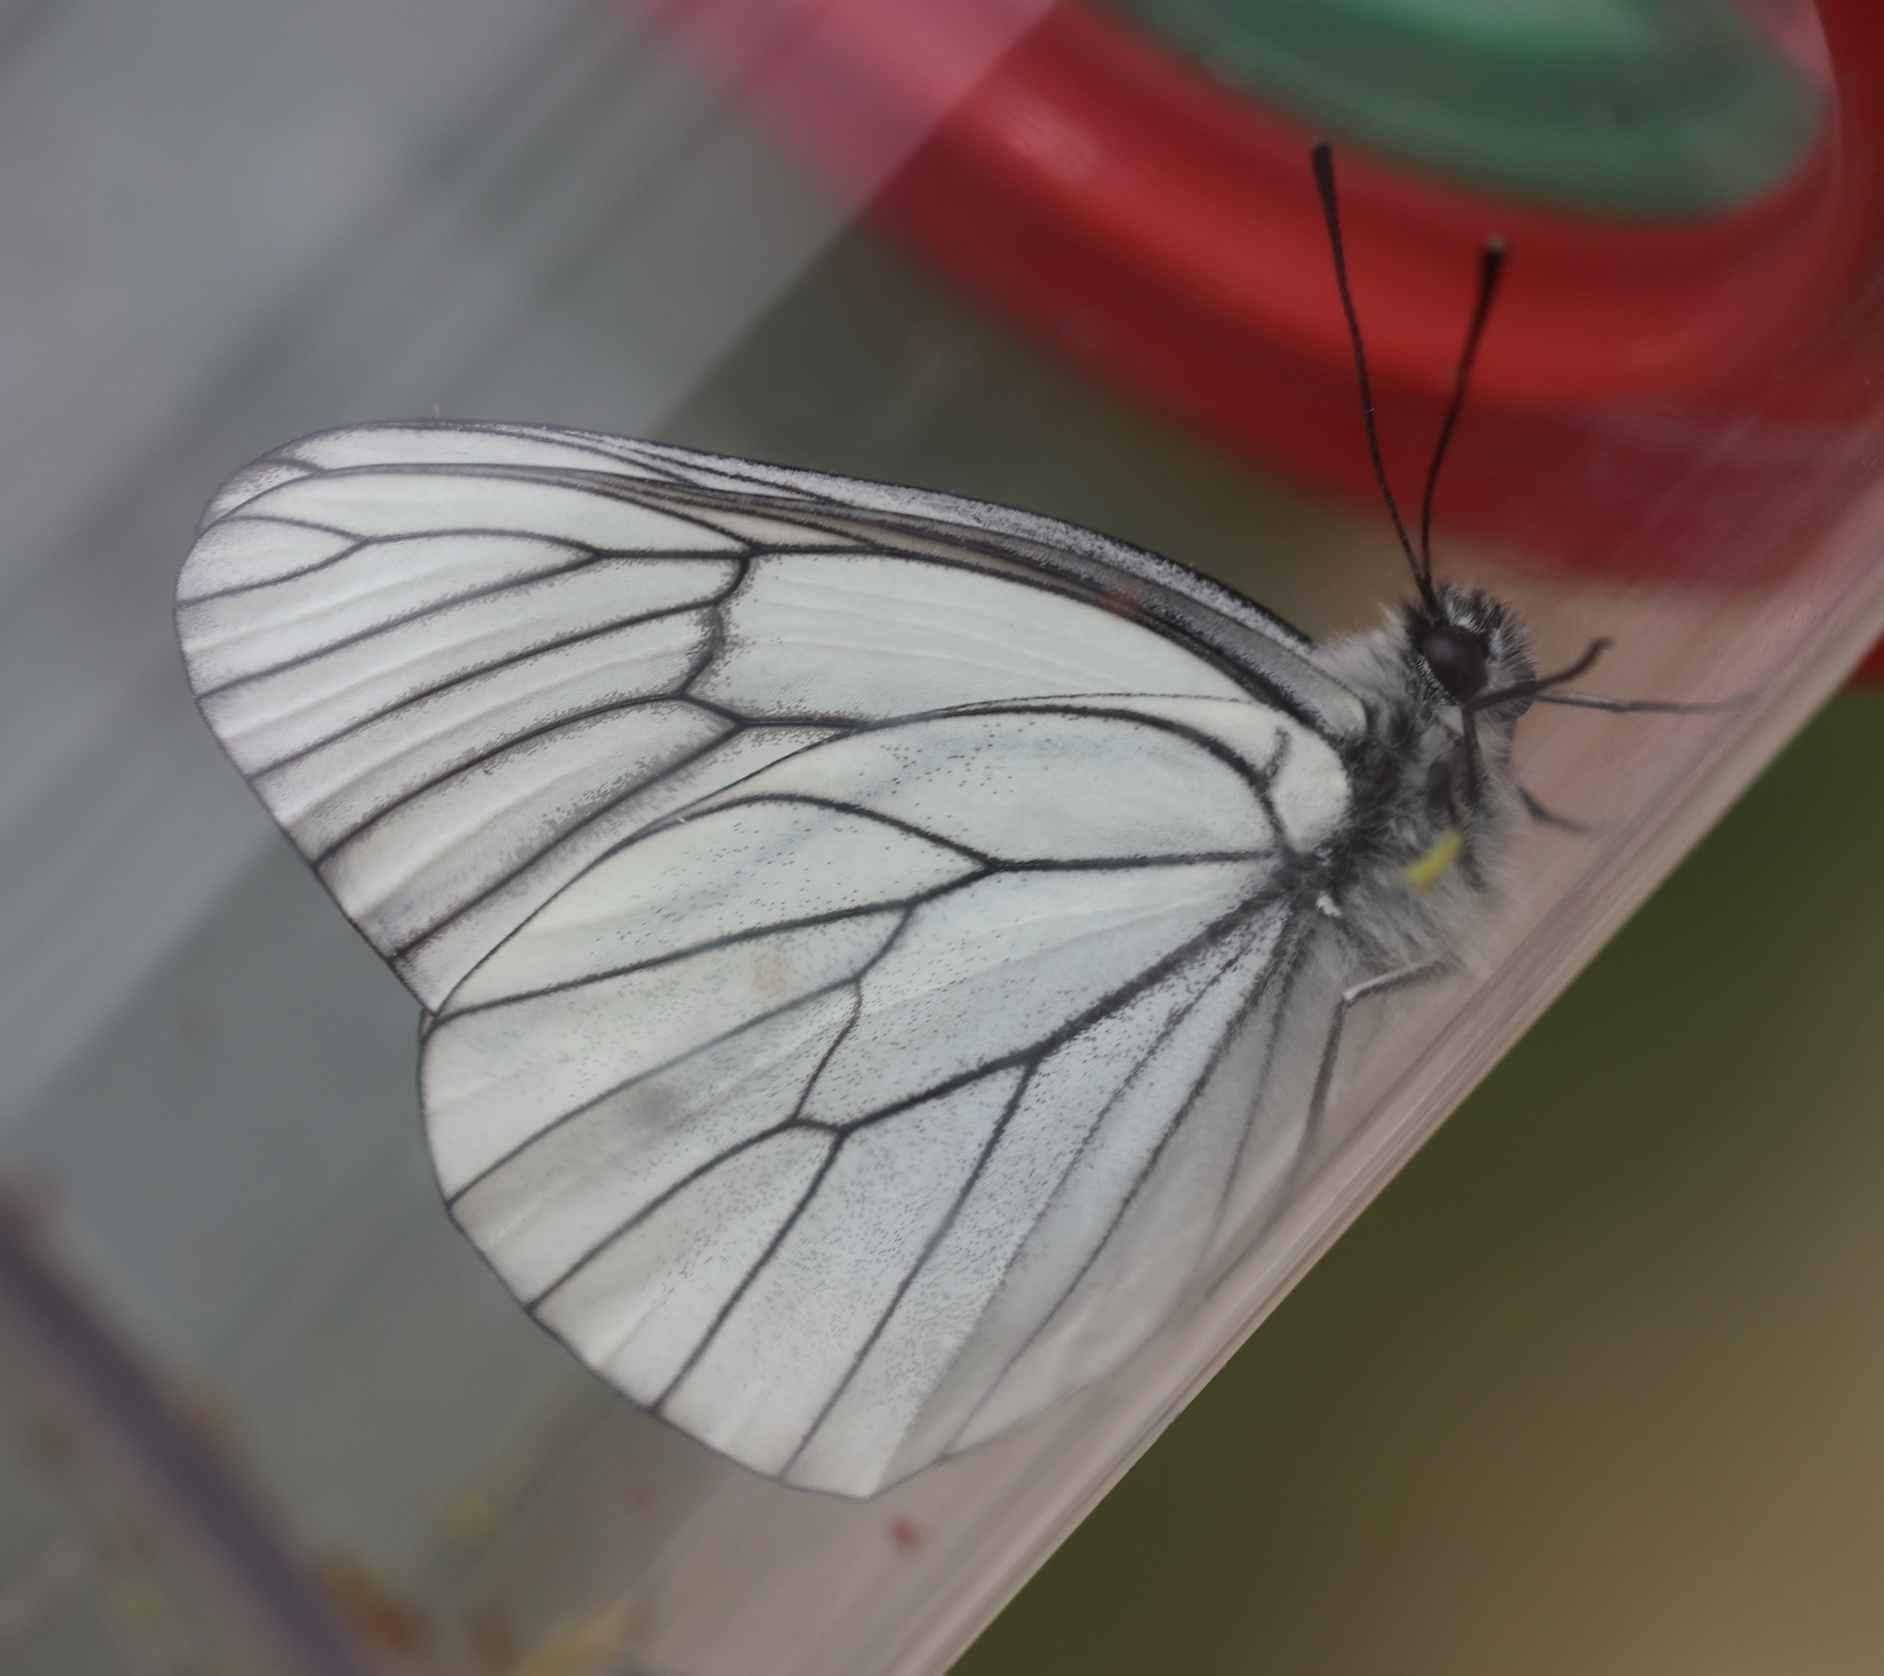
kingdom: Animalia
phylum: Arthropoda
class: Insecta
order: Lepidoptera
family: Pieridae
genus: Aporia
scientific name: Aporia crataegi
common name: Black-veined white
